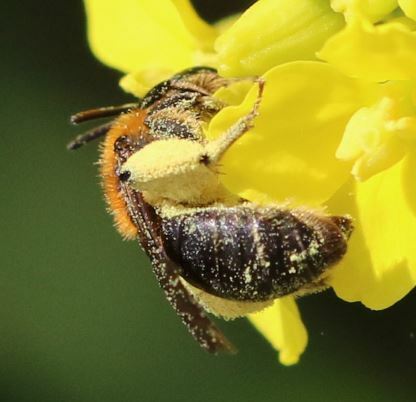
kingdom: Animalia
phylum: Arthropoda
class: Insecta
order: Hymenoptera
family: Andrenidae
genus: Andrena
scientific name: Andrena haemorrhoa
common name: Early mining bee
